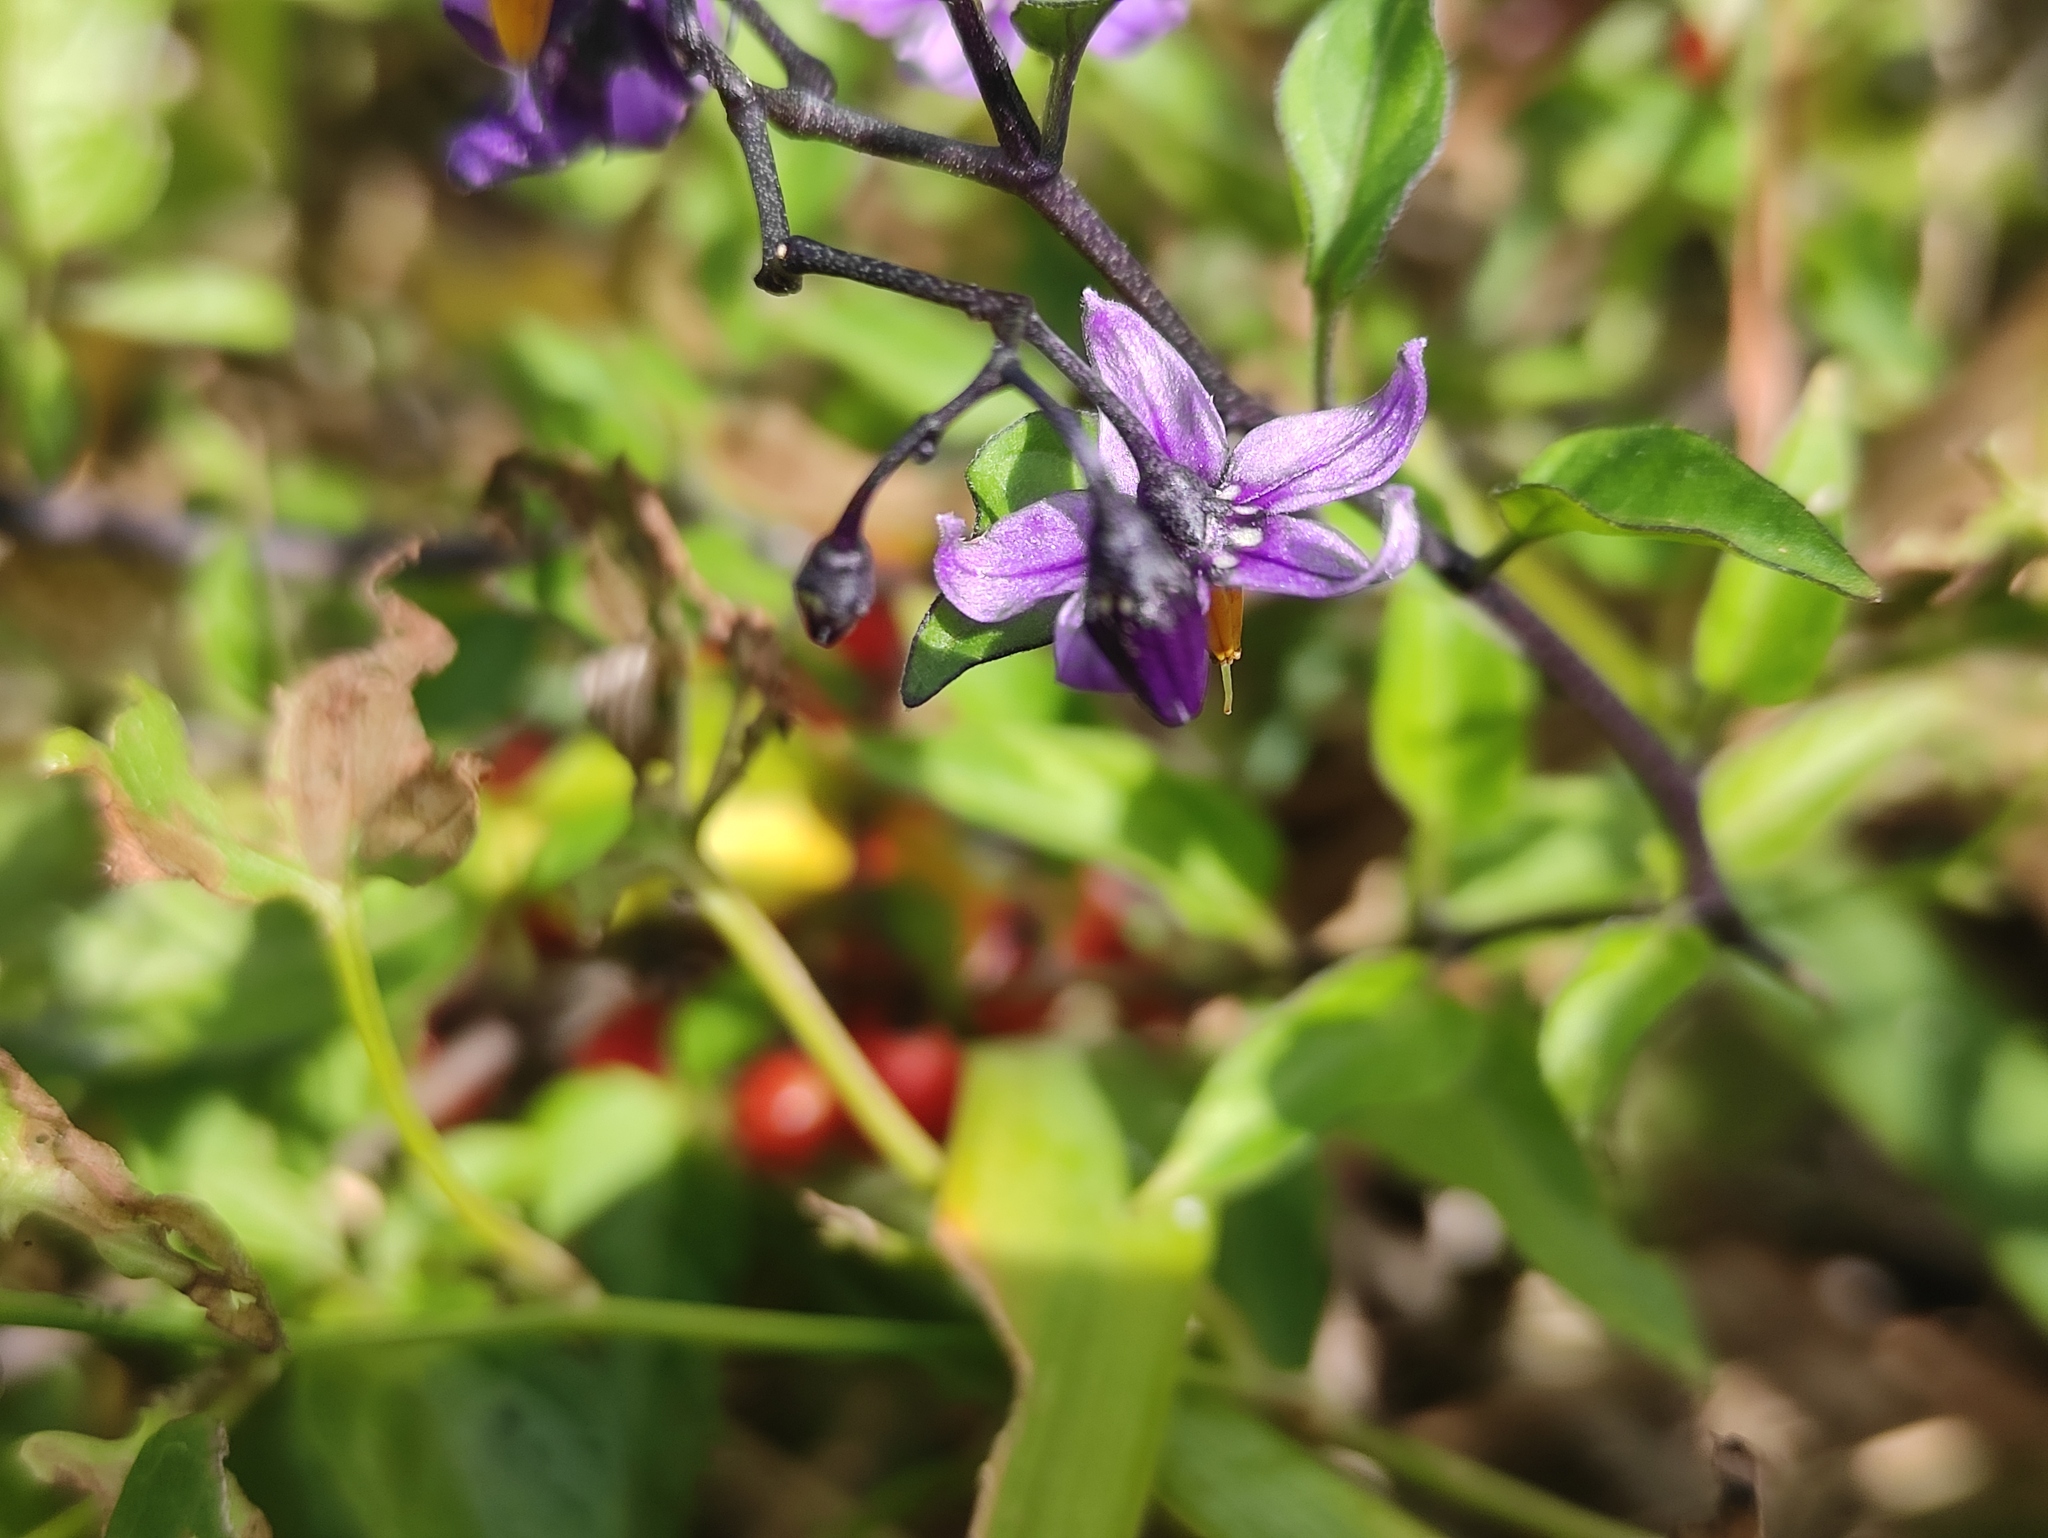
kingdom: Plantae
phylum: Tracheophyta
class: Magnoliopsida
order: Solanales
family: Solanaceae
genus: Solanum
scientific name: Solanum dulcamara
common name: Climbing nightshade
